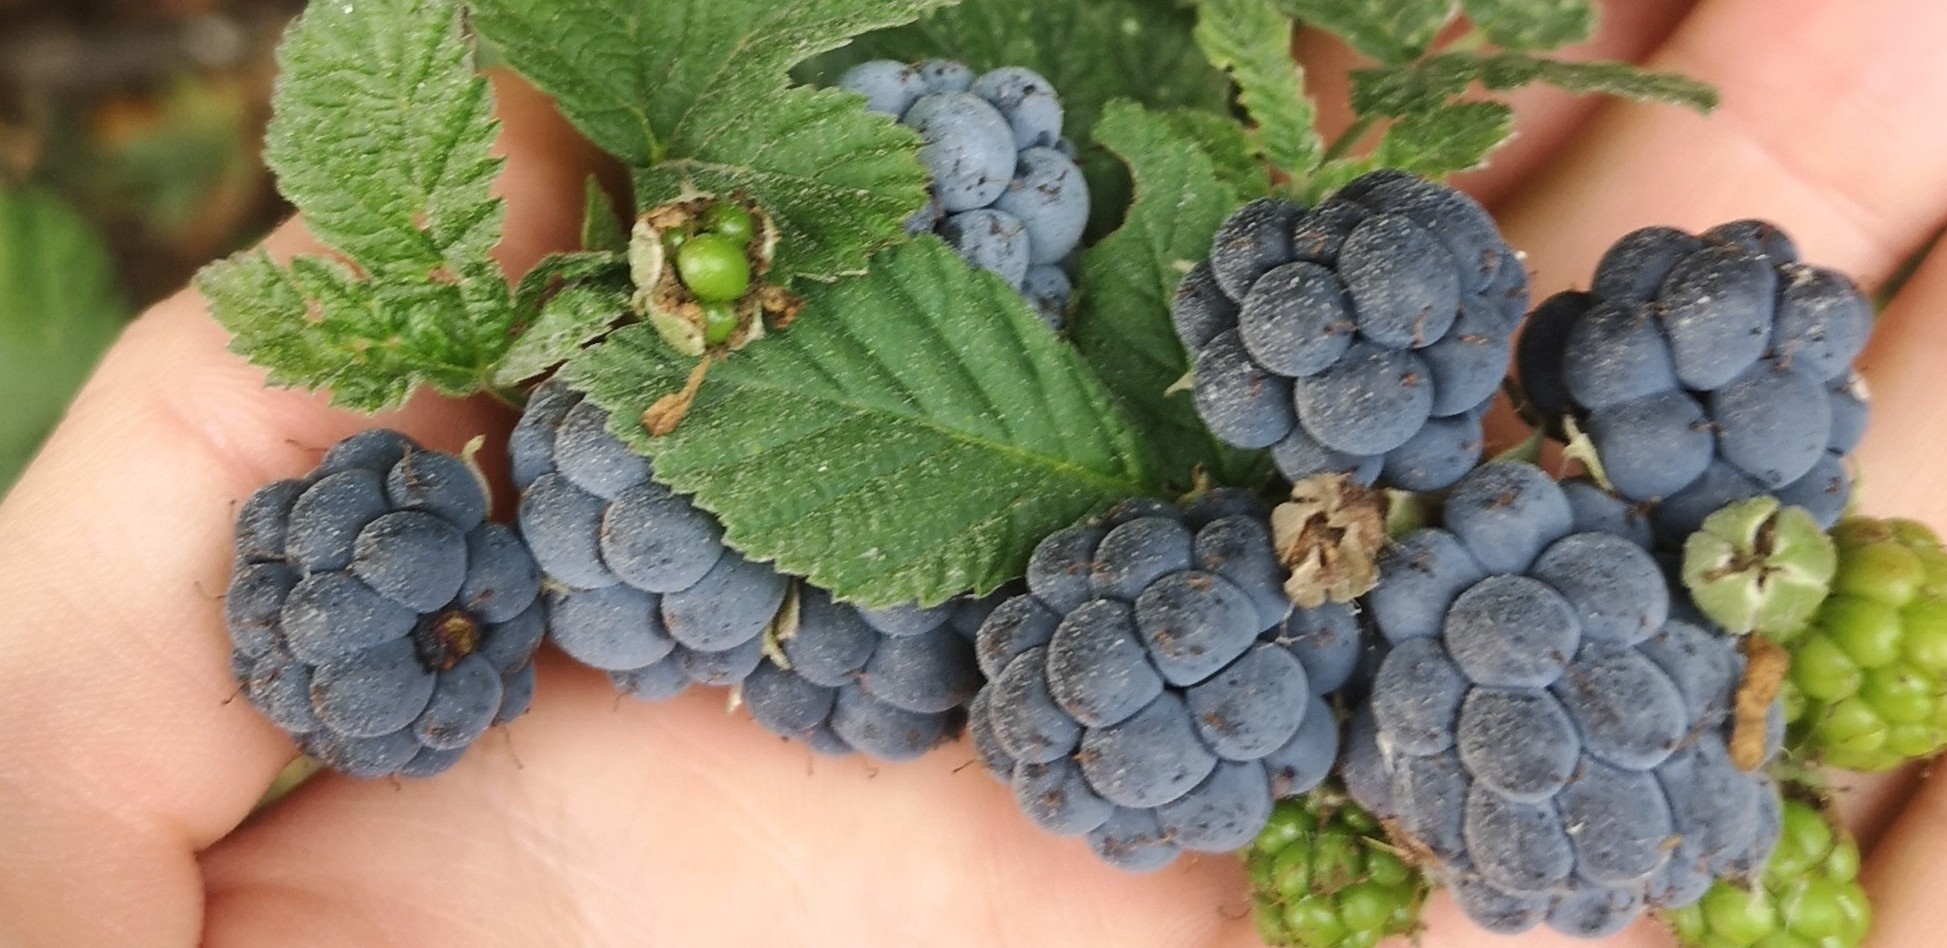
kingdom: Plantae
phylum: Tracheophyta
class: Magnoliopsida
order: Rosales
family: Rosaceae
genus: Rubus
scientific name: Rubus caesius
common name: Dewberry
